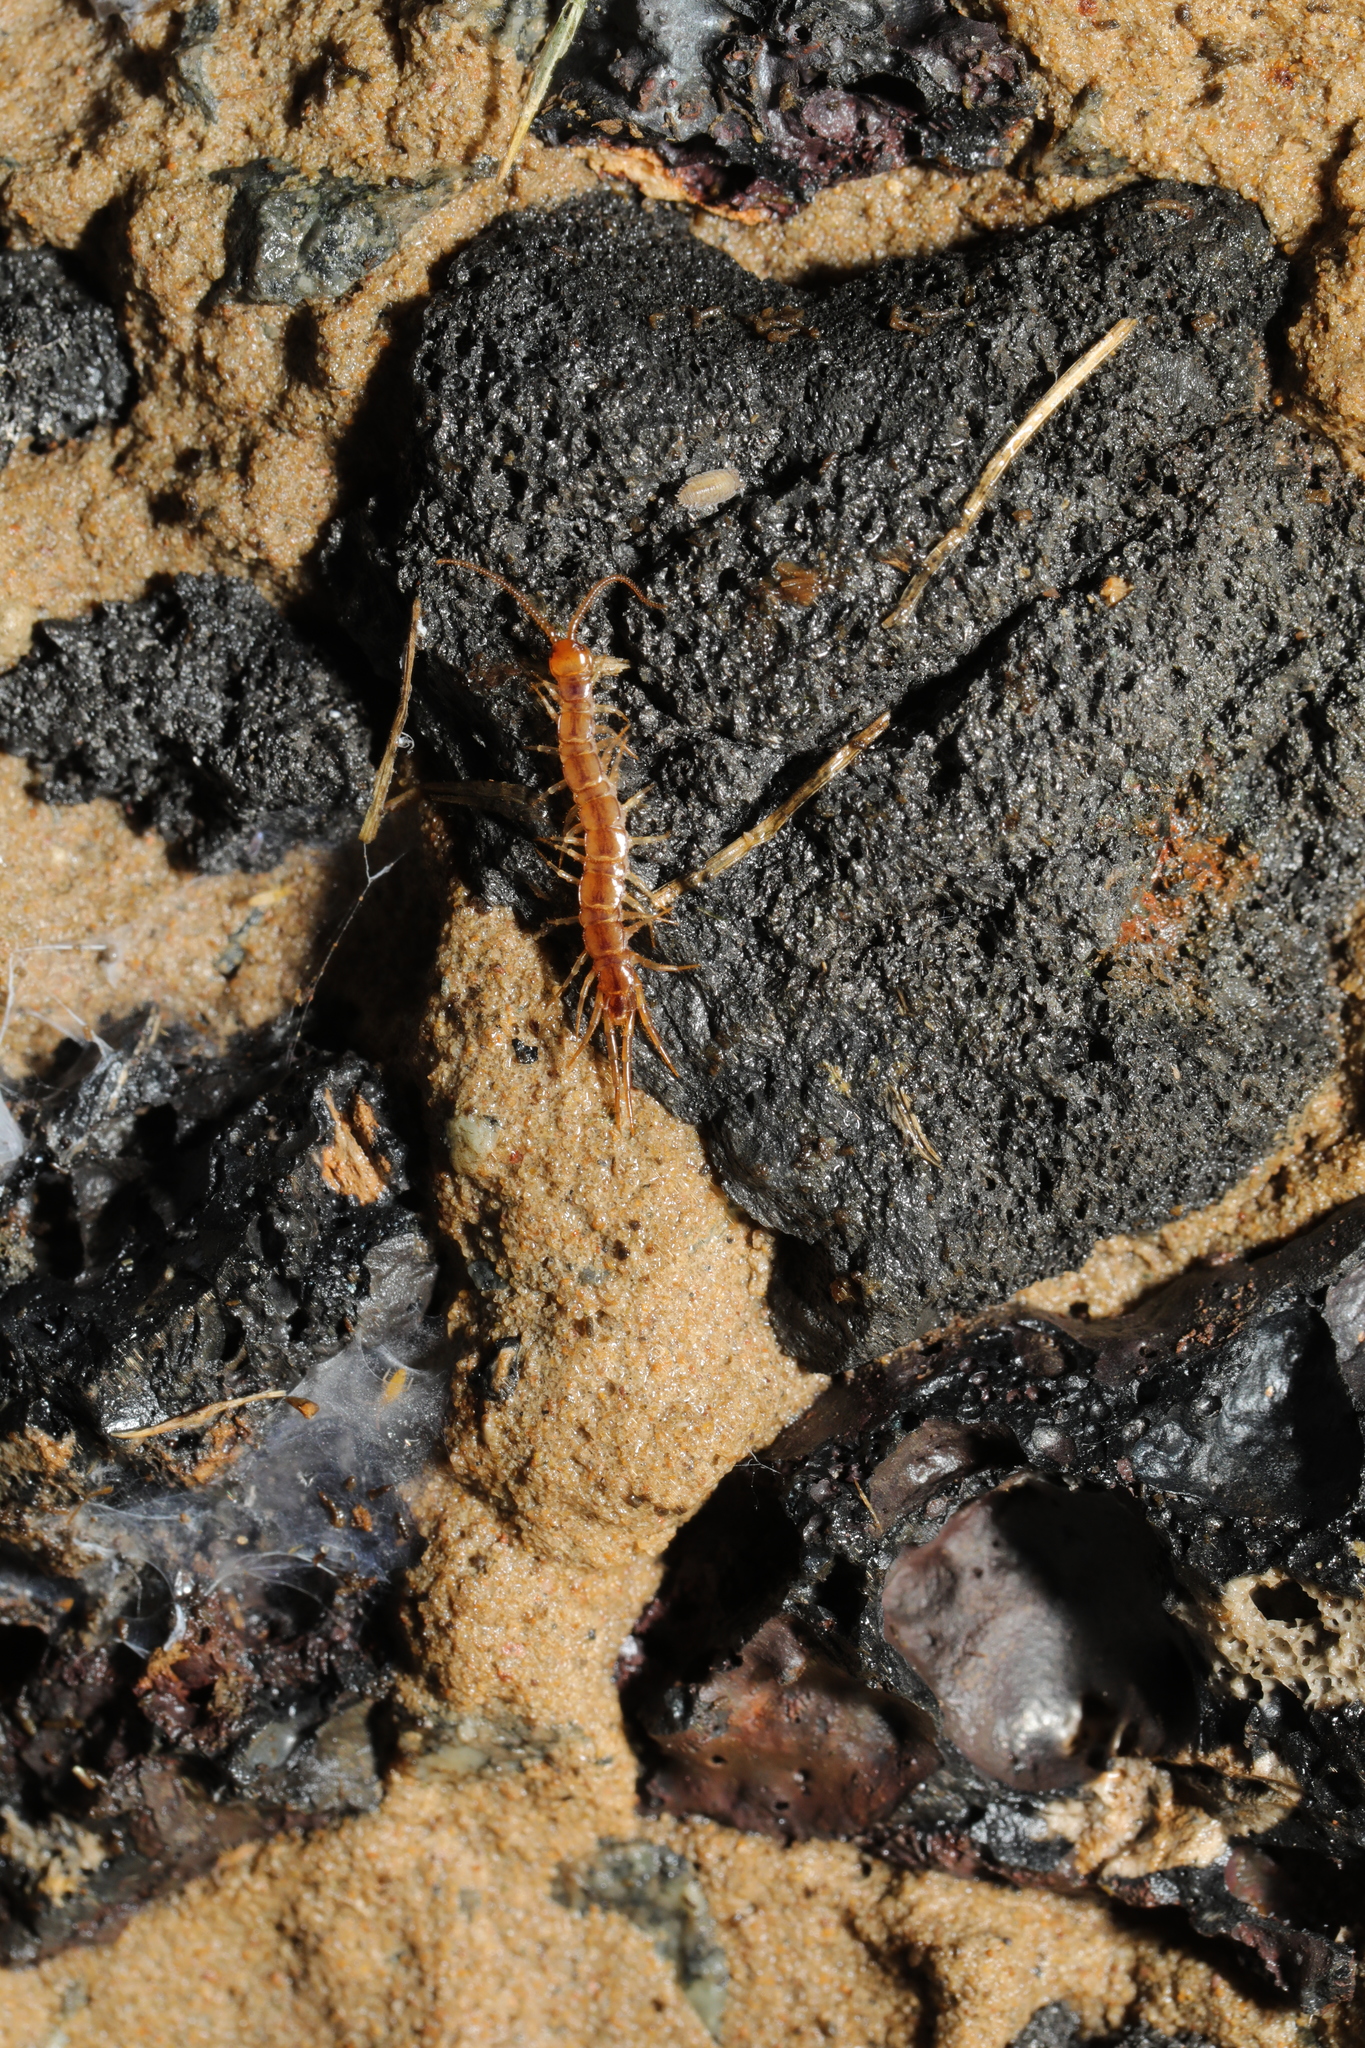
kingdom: Animalia
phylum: Arthropoda
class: Chilopoda
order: Lithobiomorpha
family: Lithobiidae
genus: Lithobius
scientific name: Lithobius melanops
